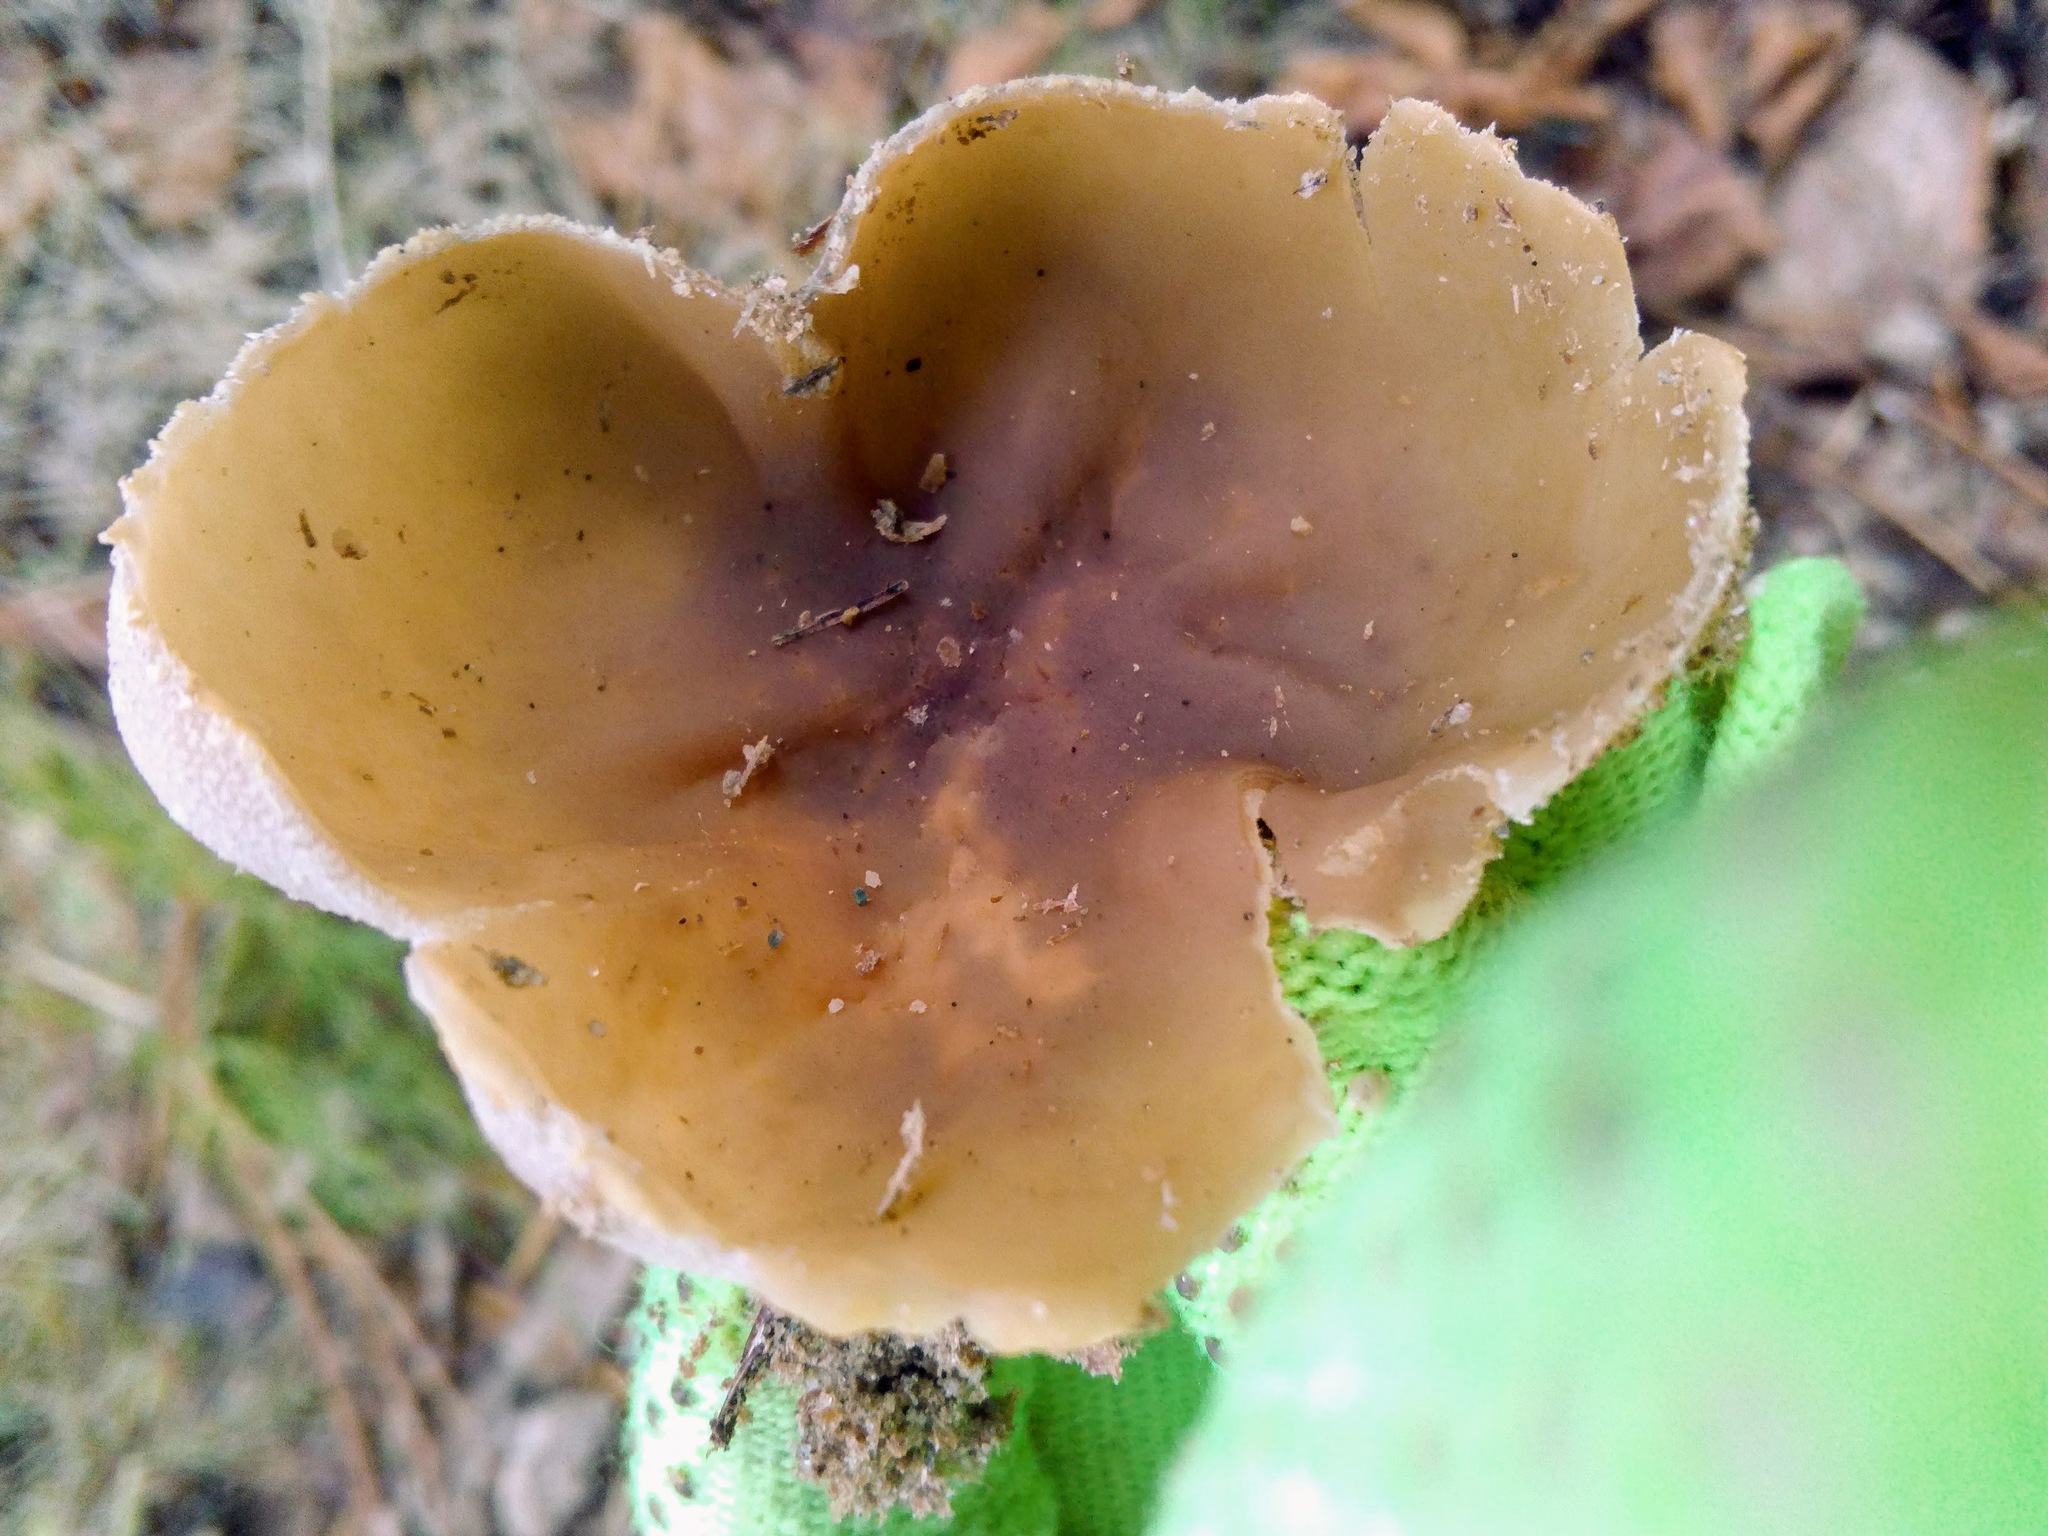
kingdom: Fungi
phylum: Ascomycota
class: Pezizomycetes
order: Pezizales
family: Pezizaceae
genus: Peziza
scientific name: Peziza varia
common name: Layered cup
